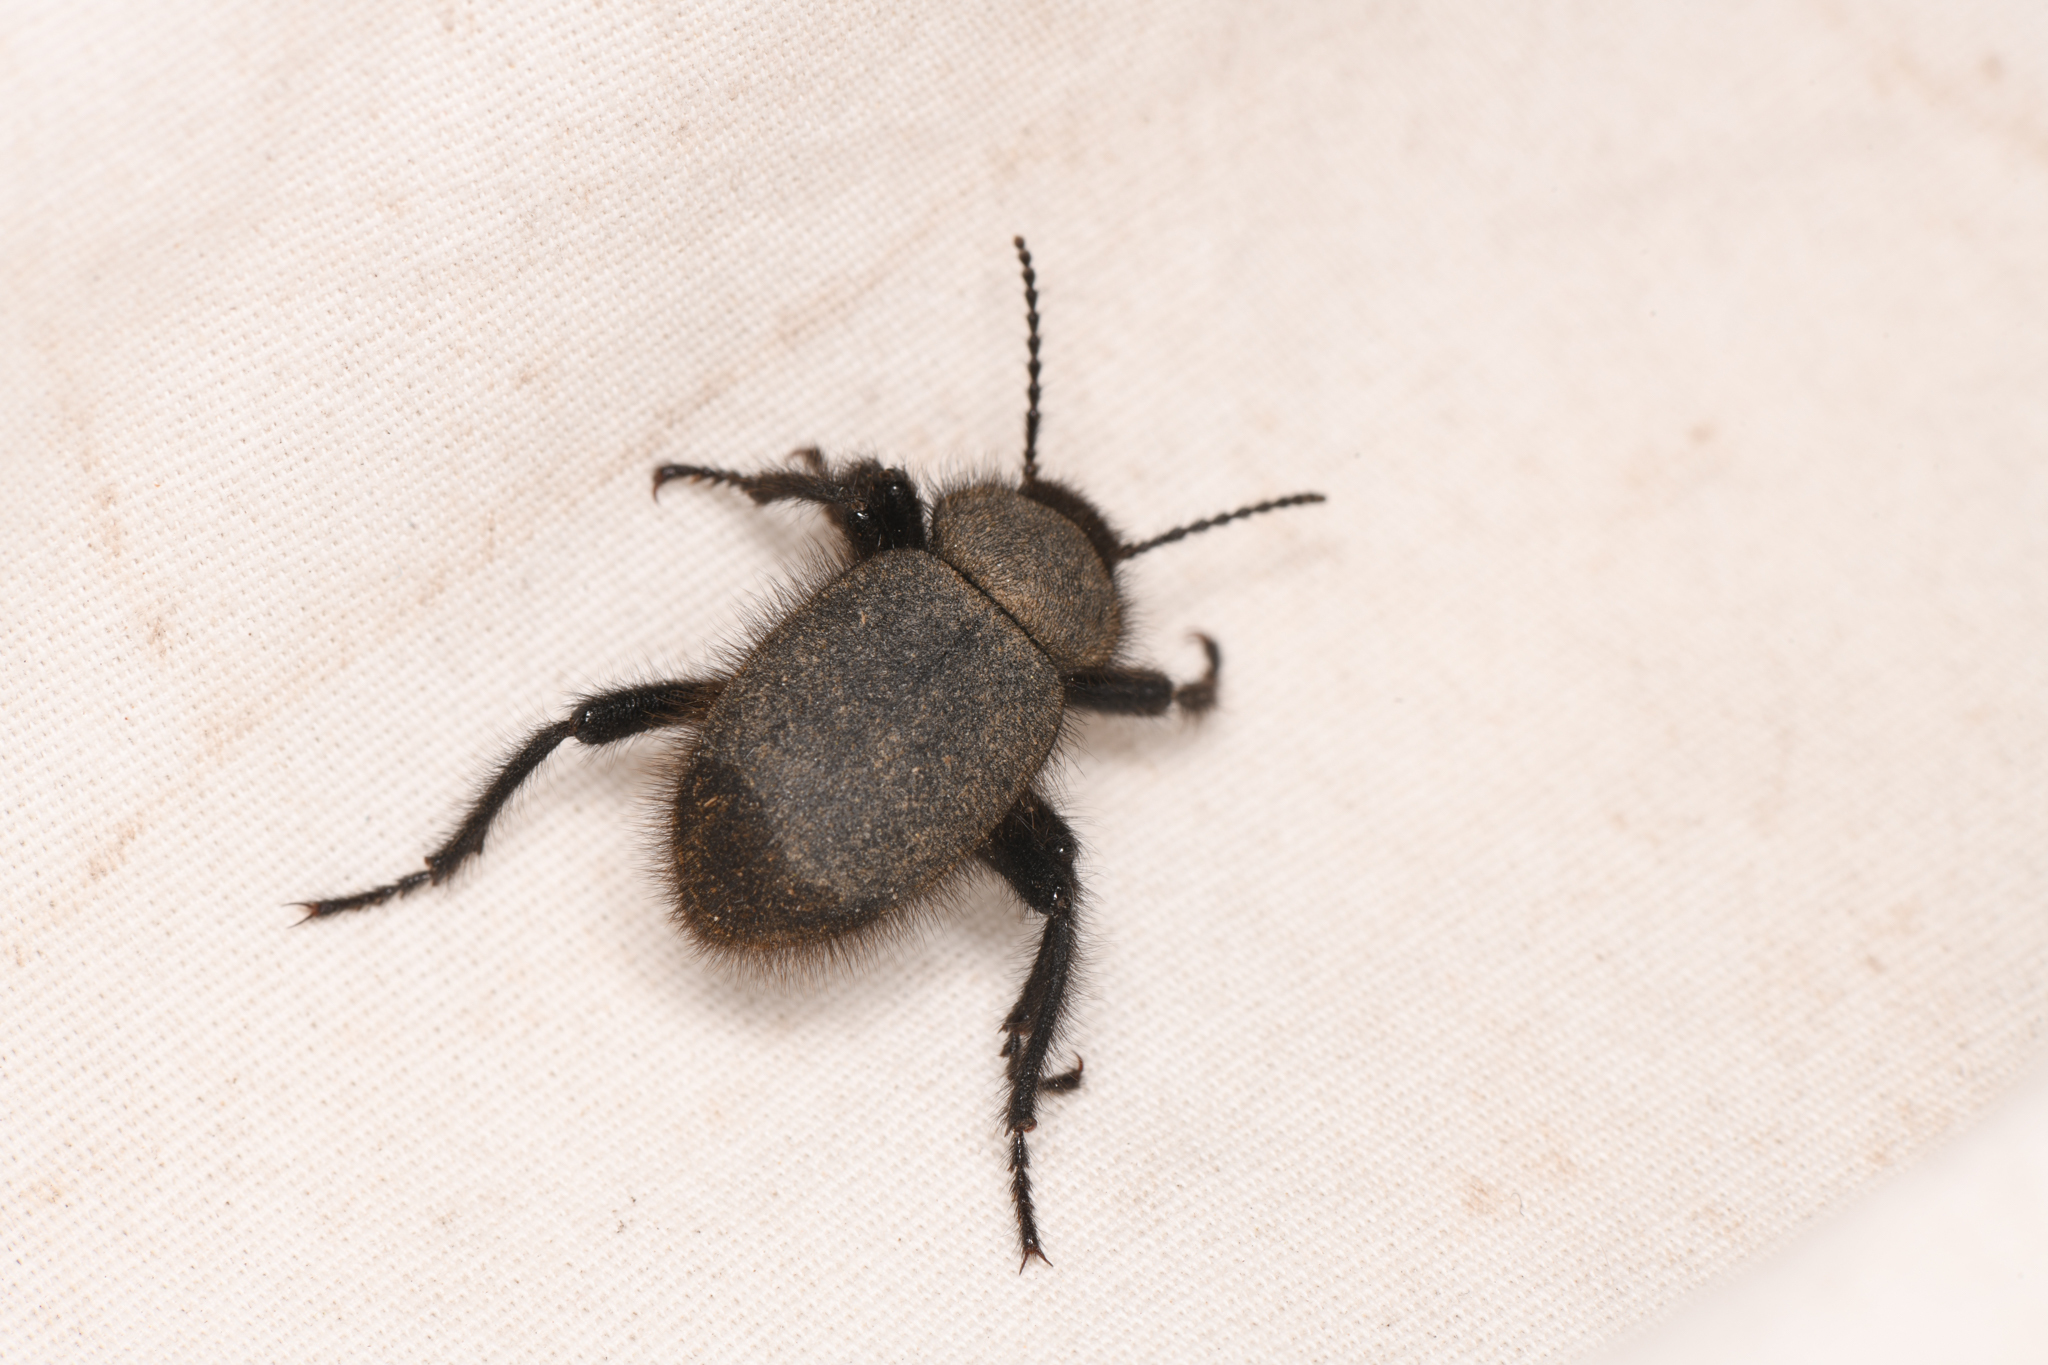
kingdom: Animalia
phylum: Arthropoda
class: Insecta
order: Coleoptera
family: Tenebrionidae
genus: Eleodes
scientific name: Eleodes osculans
